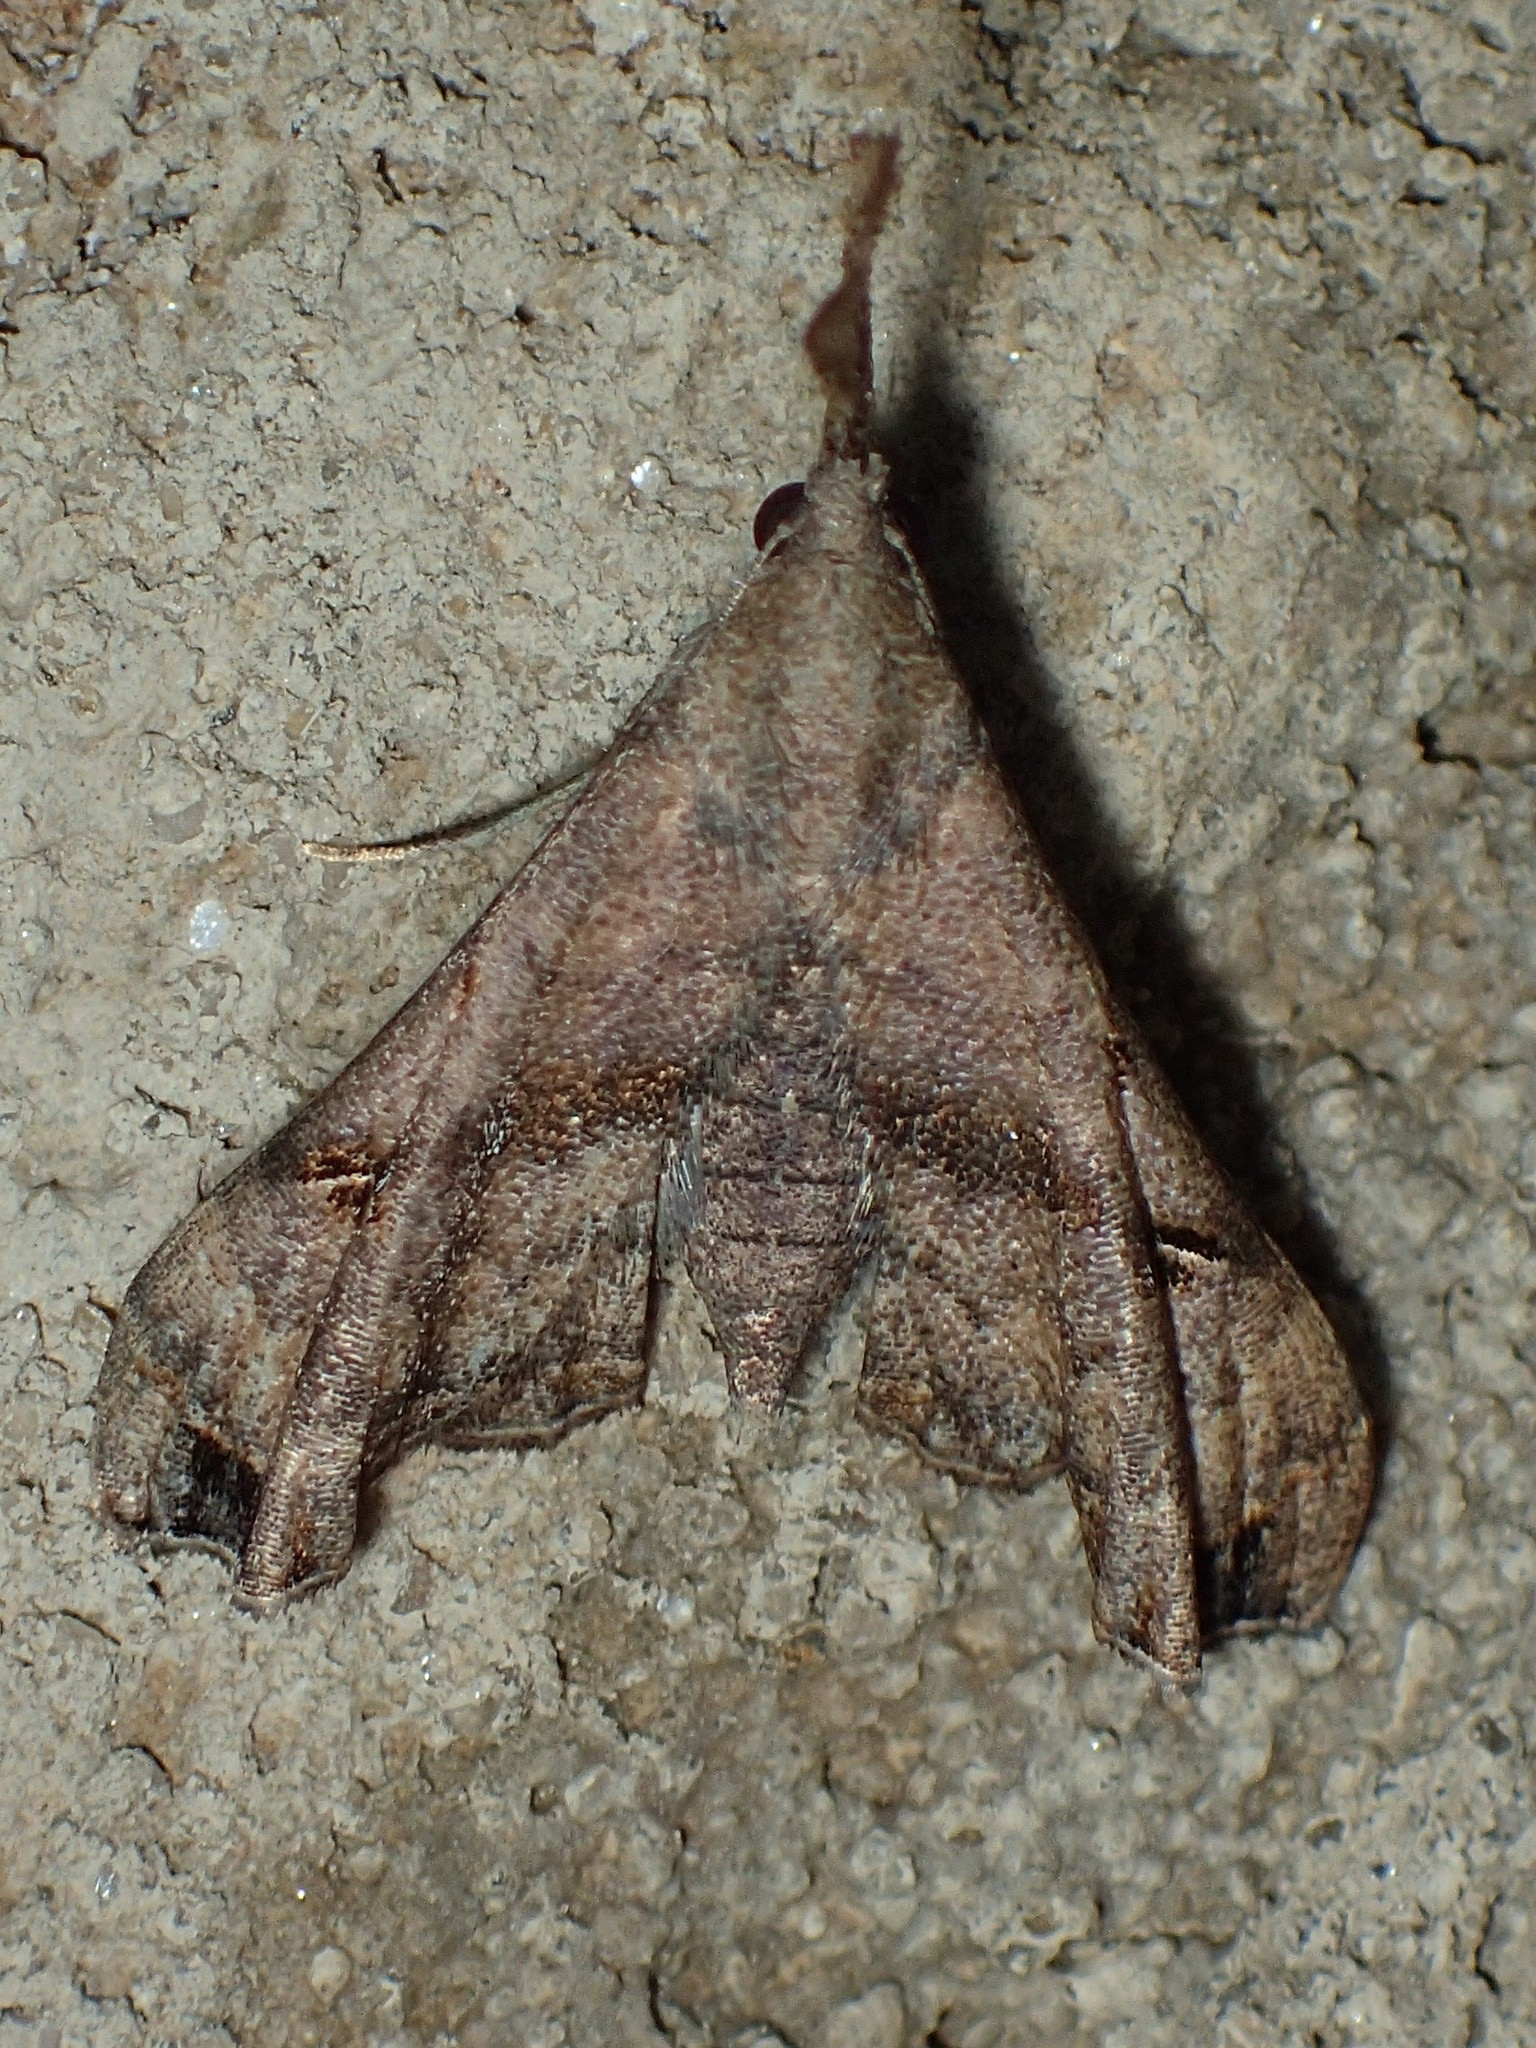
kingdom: Animalia
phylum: Arthropoda
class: Insecta
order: Lepidoptera
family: Erebidae
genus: Palthis
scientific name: Palthis asopialis
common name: Faint-spotted palthis moth
